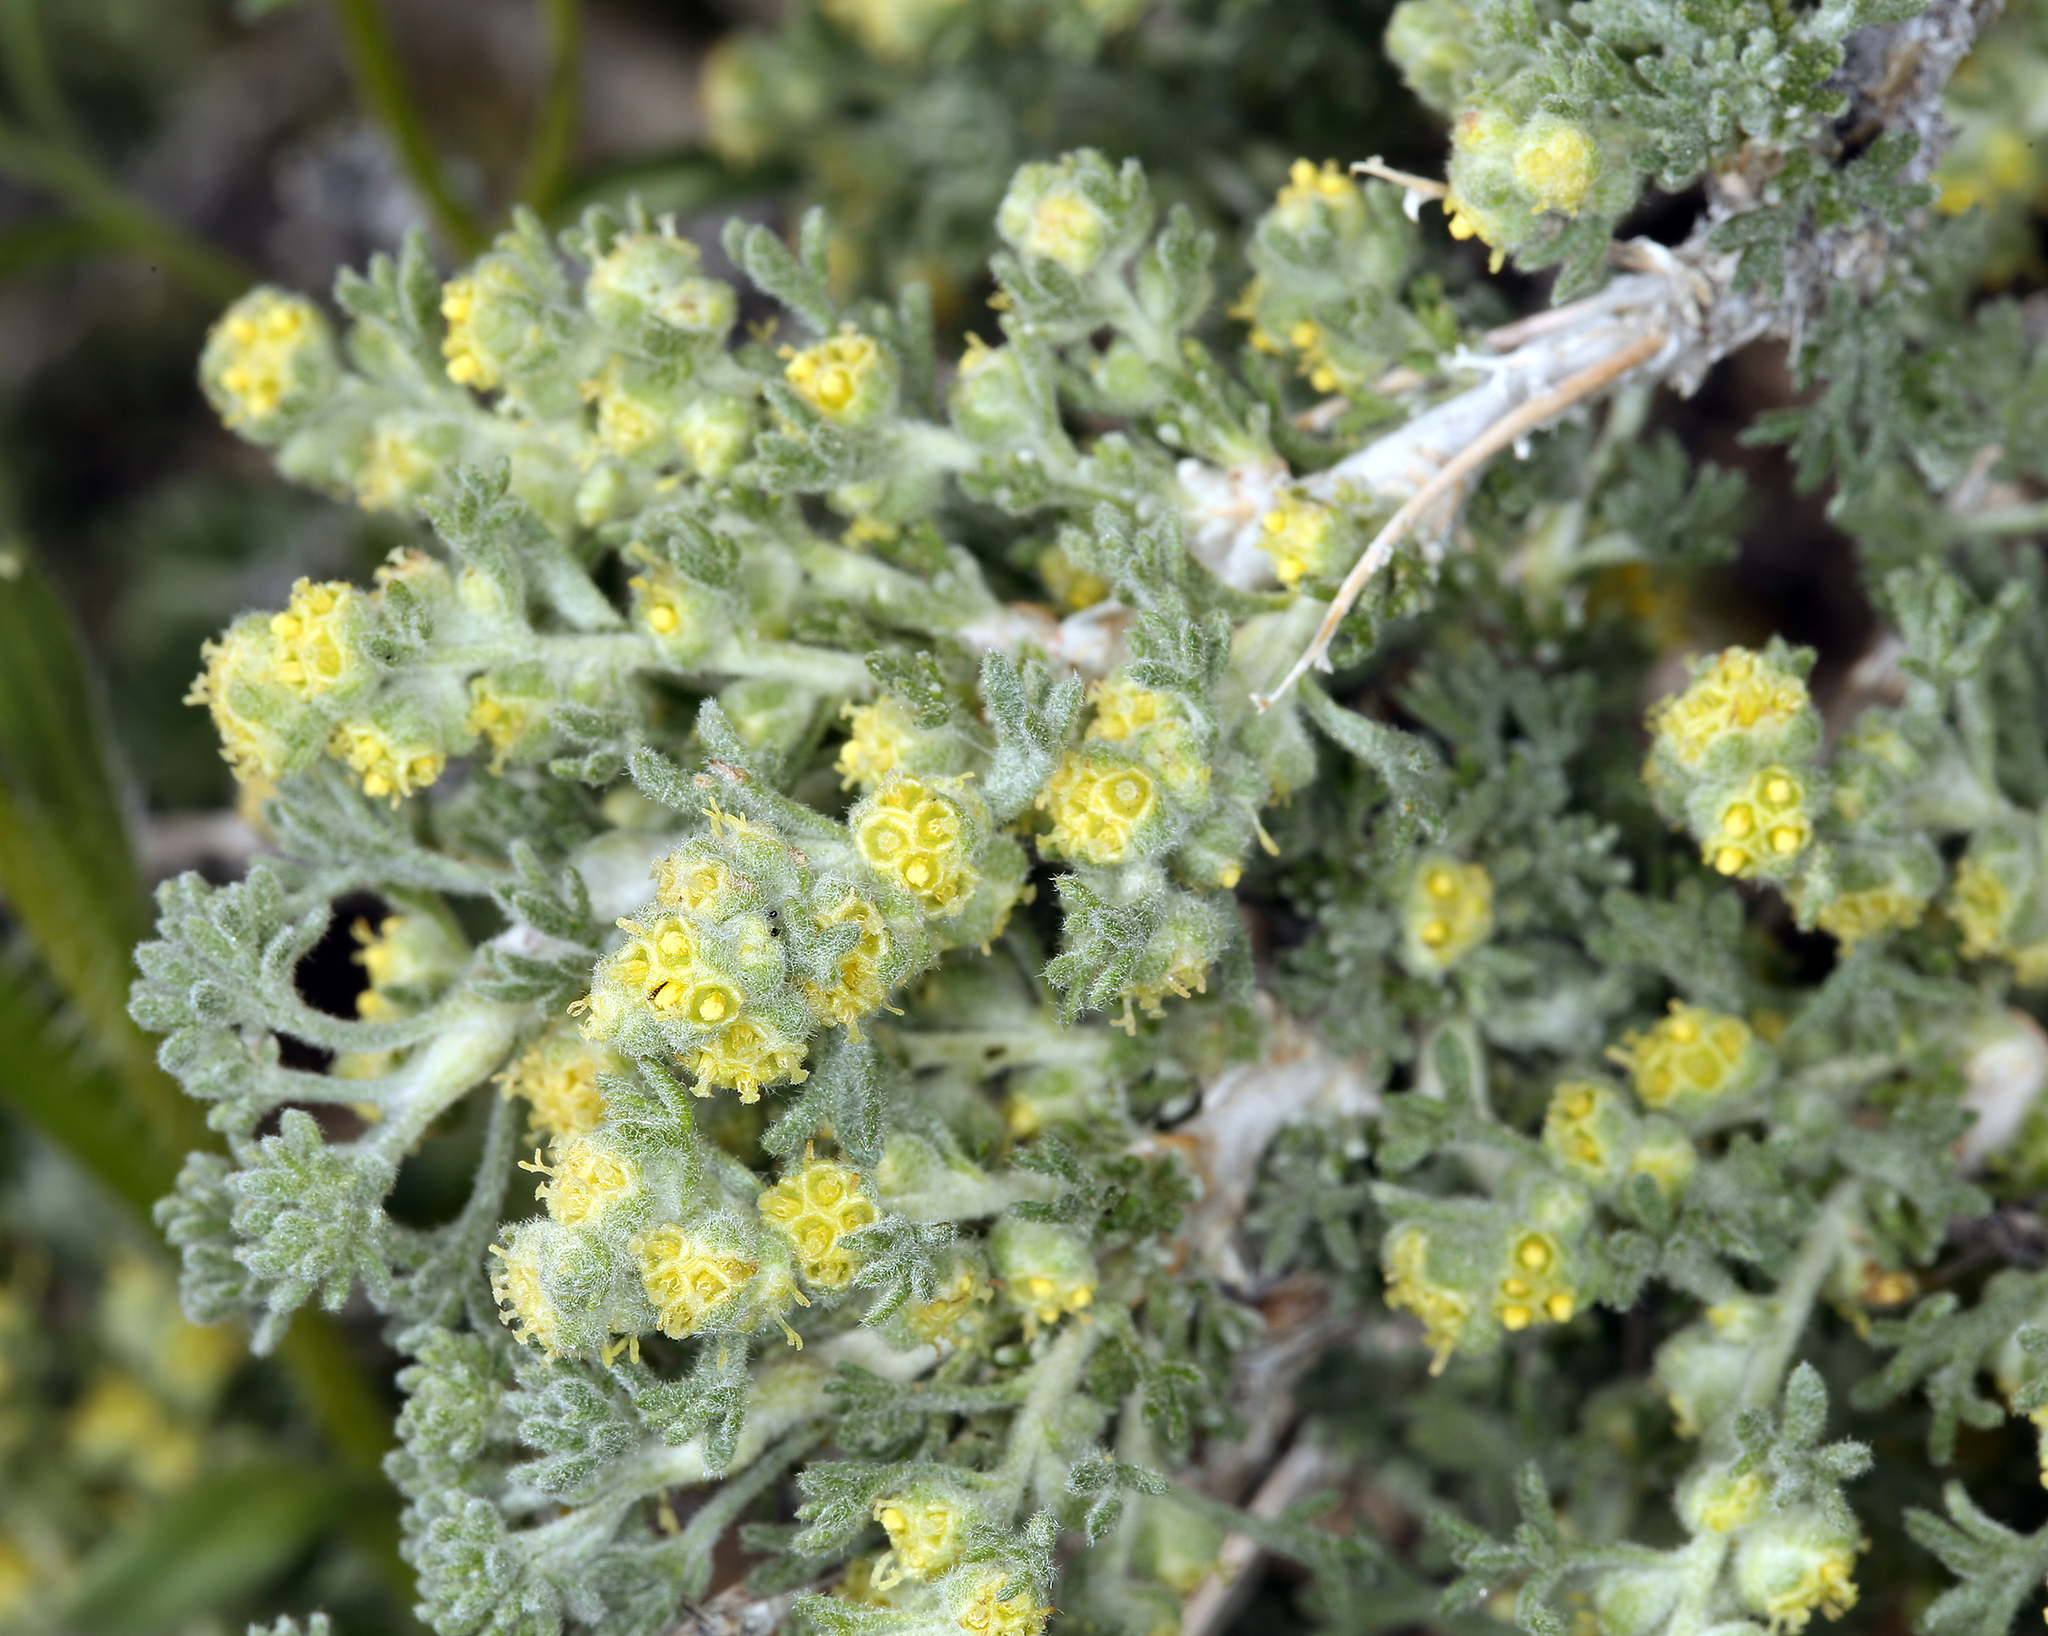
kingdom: Plantae
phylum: Tracheophyta
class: Magnoliopsida
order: Asterales
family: Asteraceae
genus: Artemisia
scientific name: Artemisia spinescens
